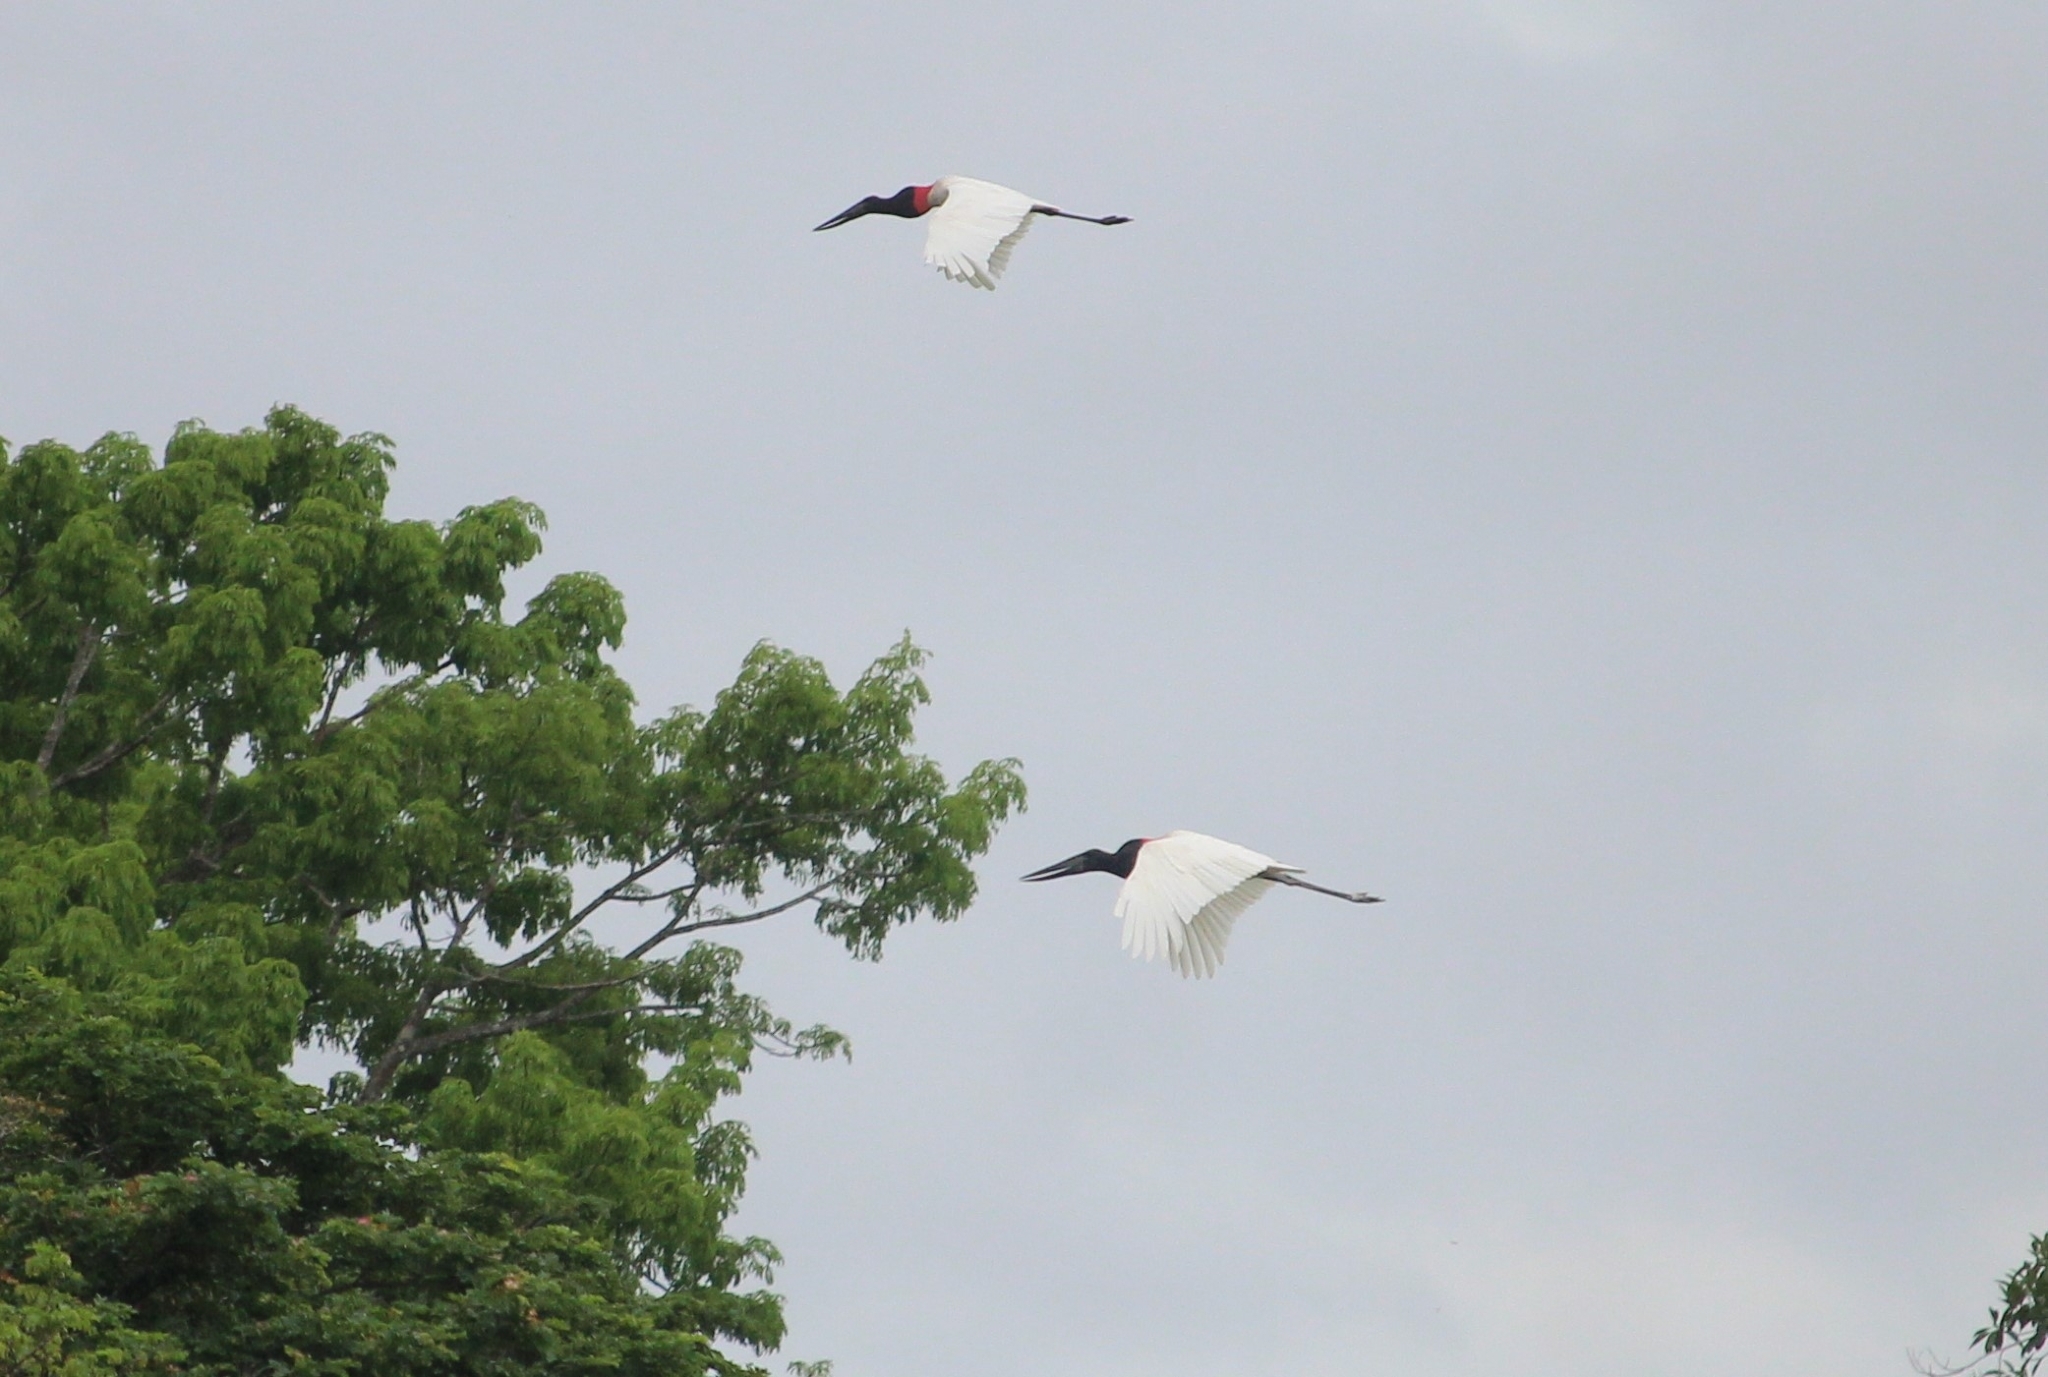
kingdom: Animalia
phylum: Chordata
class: Aves
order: Ciconiiformes
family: Ciconiidae
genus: Jabiru
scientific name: Jabiru mycteria
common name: Jabiru
